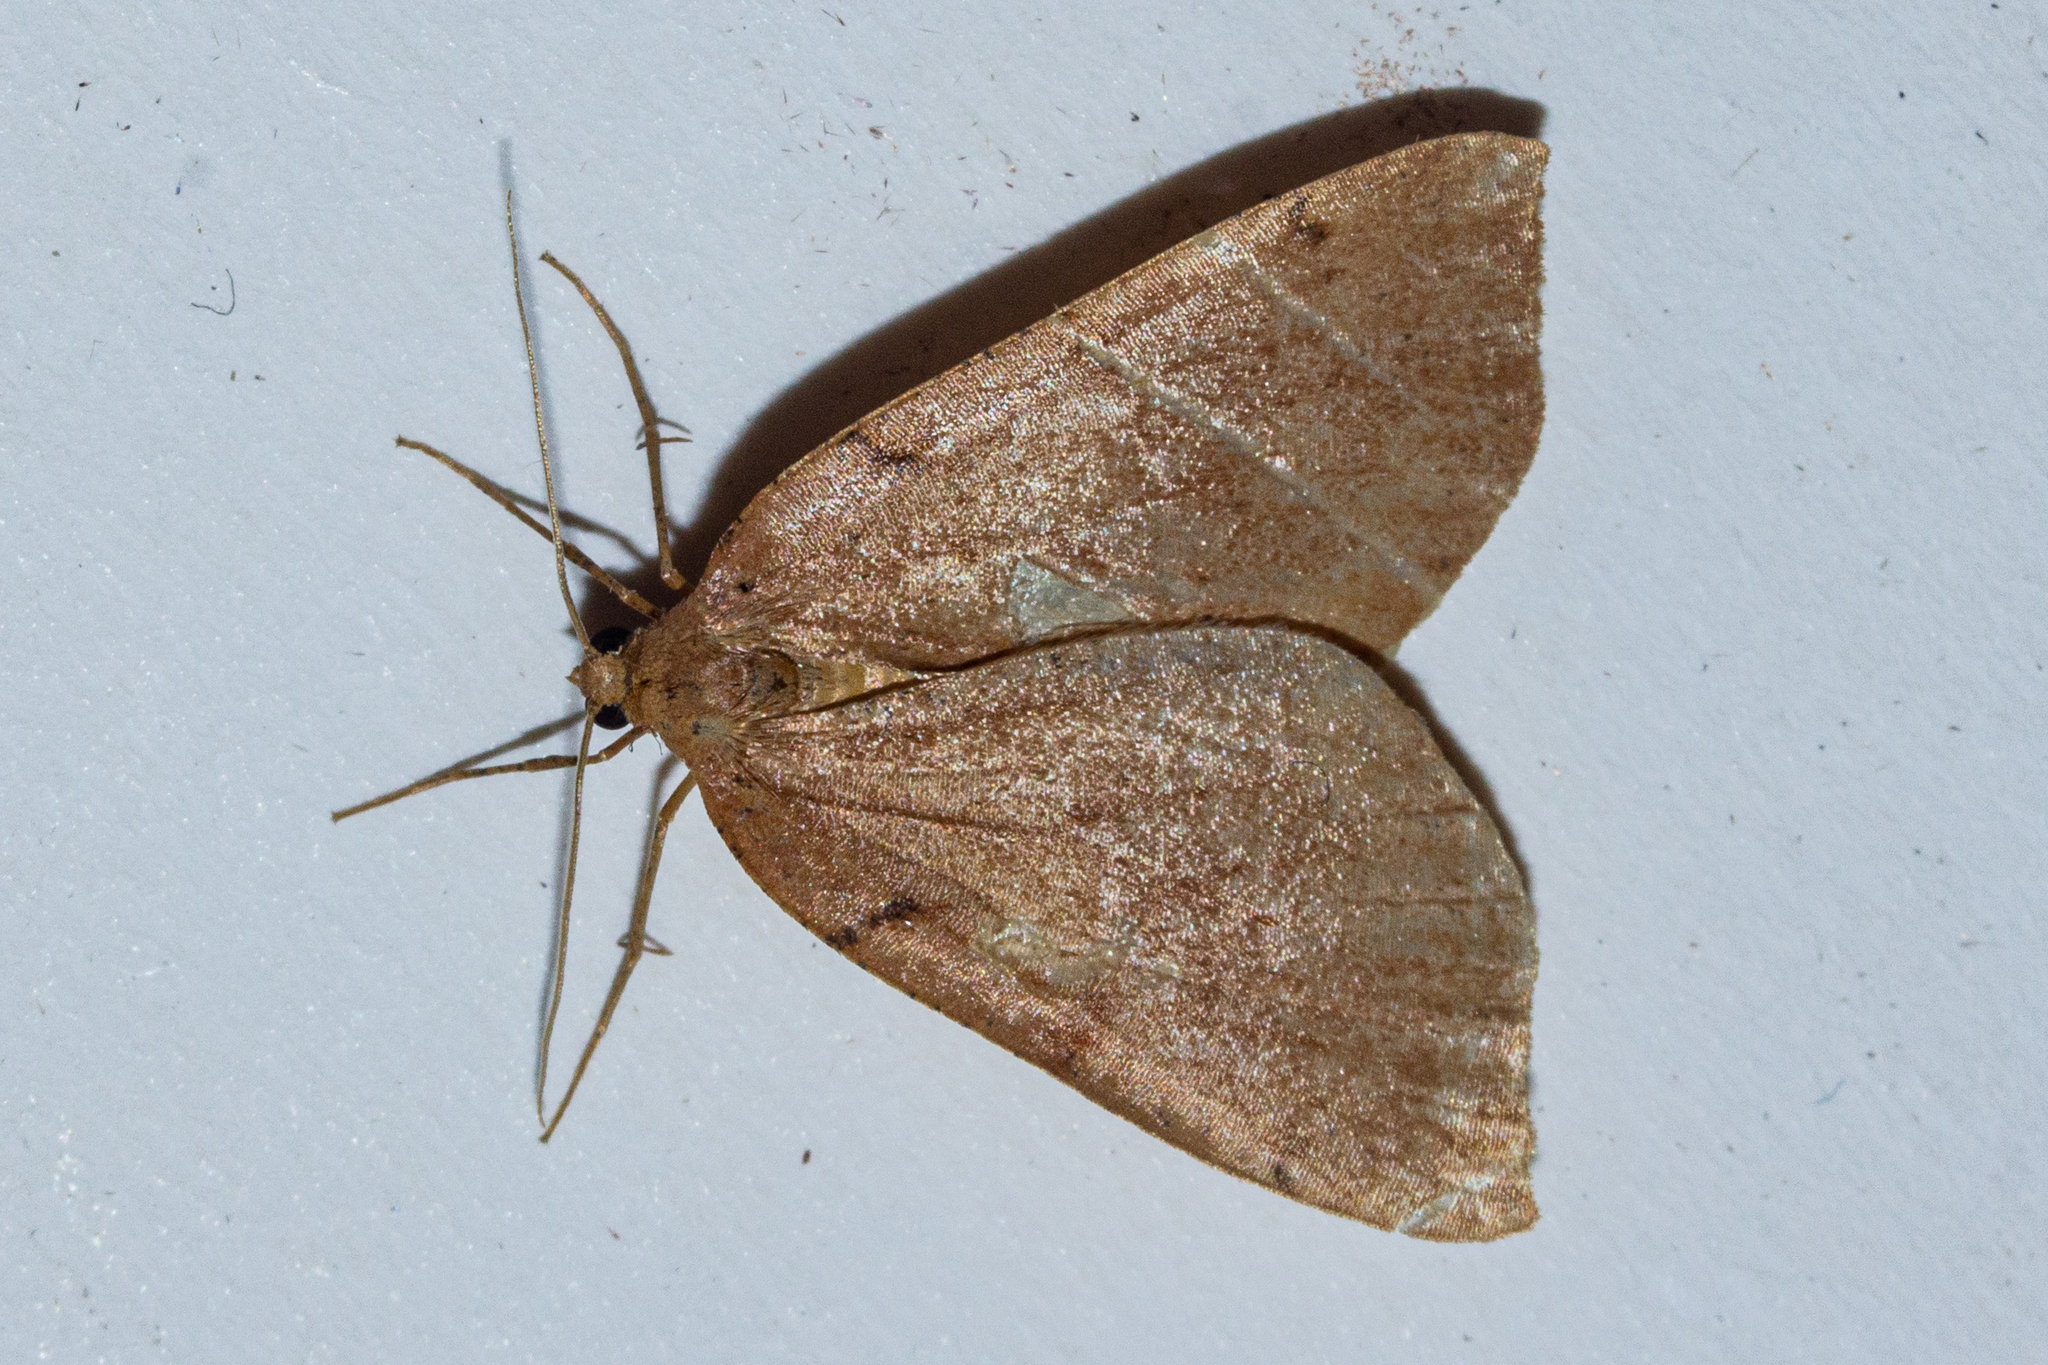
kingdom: Animalia
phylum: Arthropoda
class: Insecta
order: Lepidoptera
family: Geometridae
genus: Sestra
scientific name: Sestra humeraria
